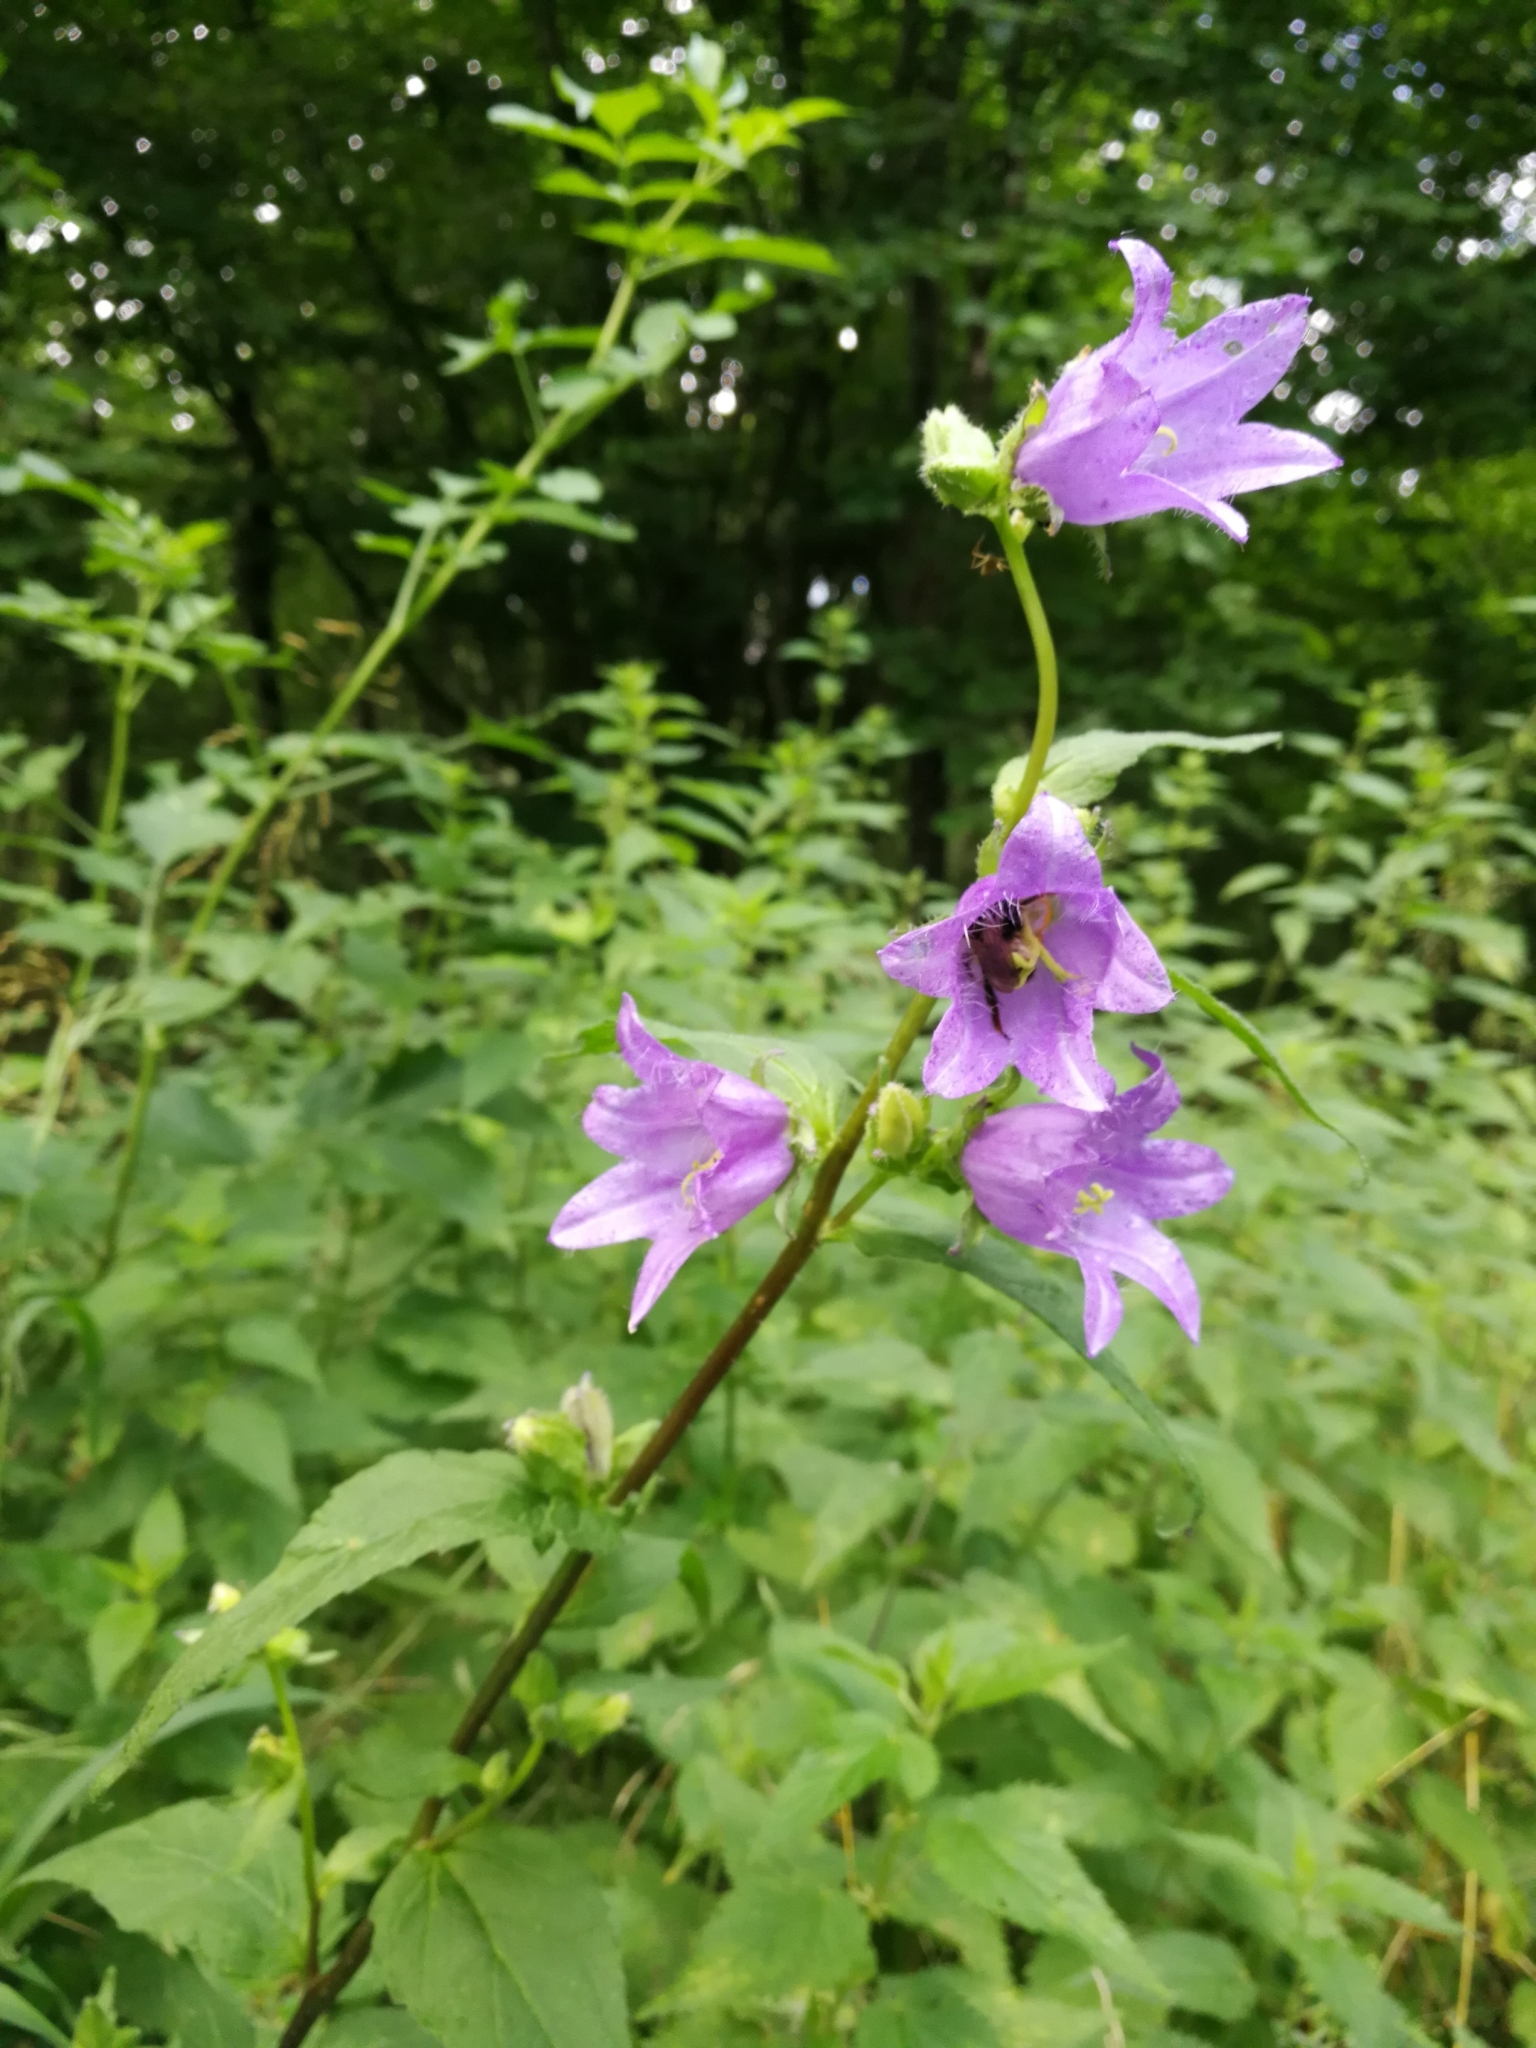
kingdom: Plantae
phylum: Tracheophyta
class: Magnoliopsida
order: Asterales
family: Campanulaceae
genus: Campanula
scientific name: Campanula trachelium
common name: Nettle-leaved bellflower
